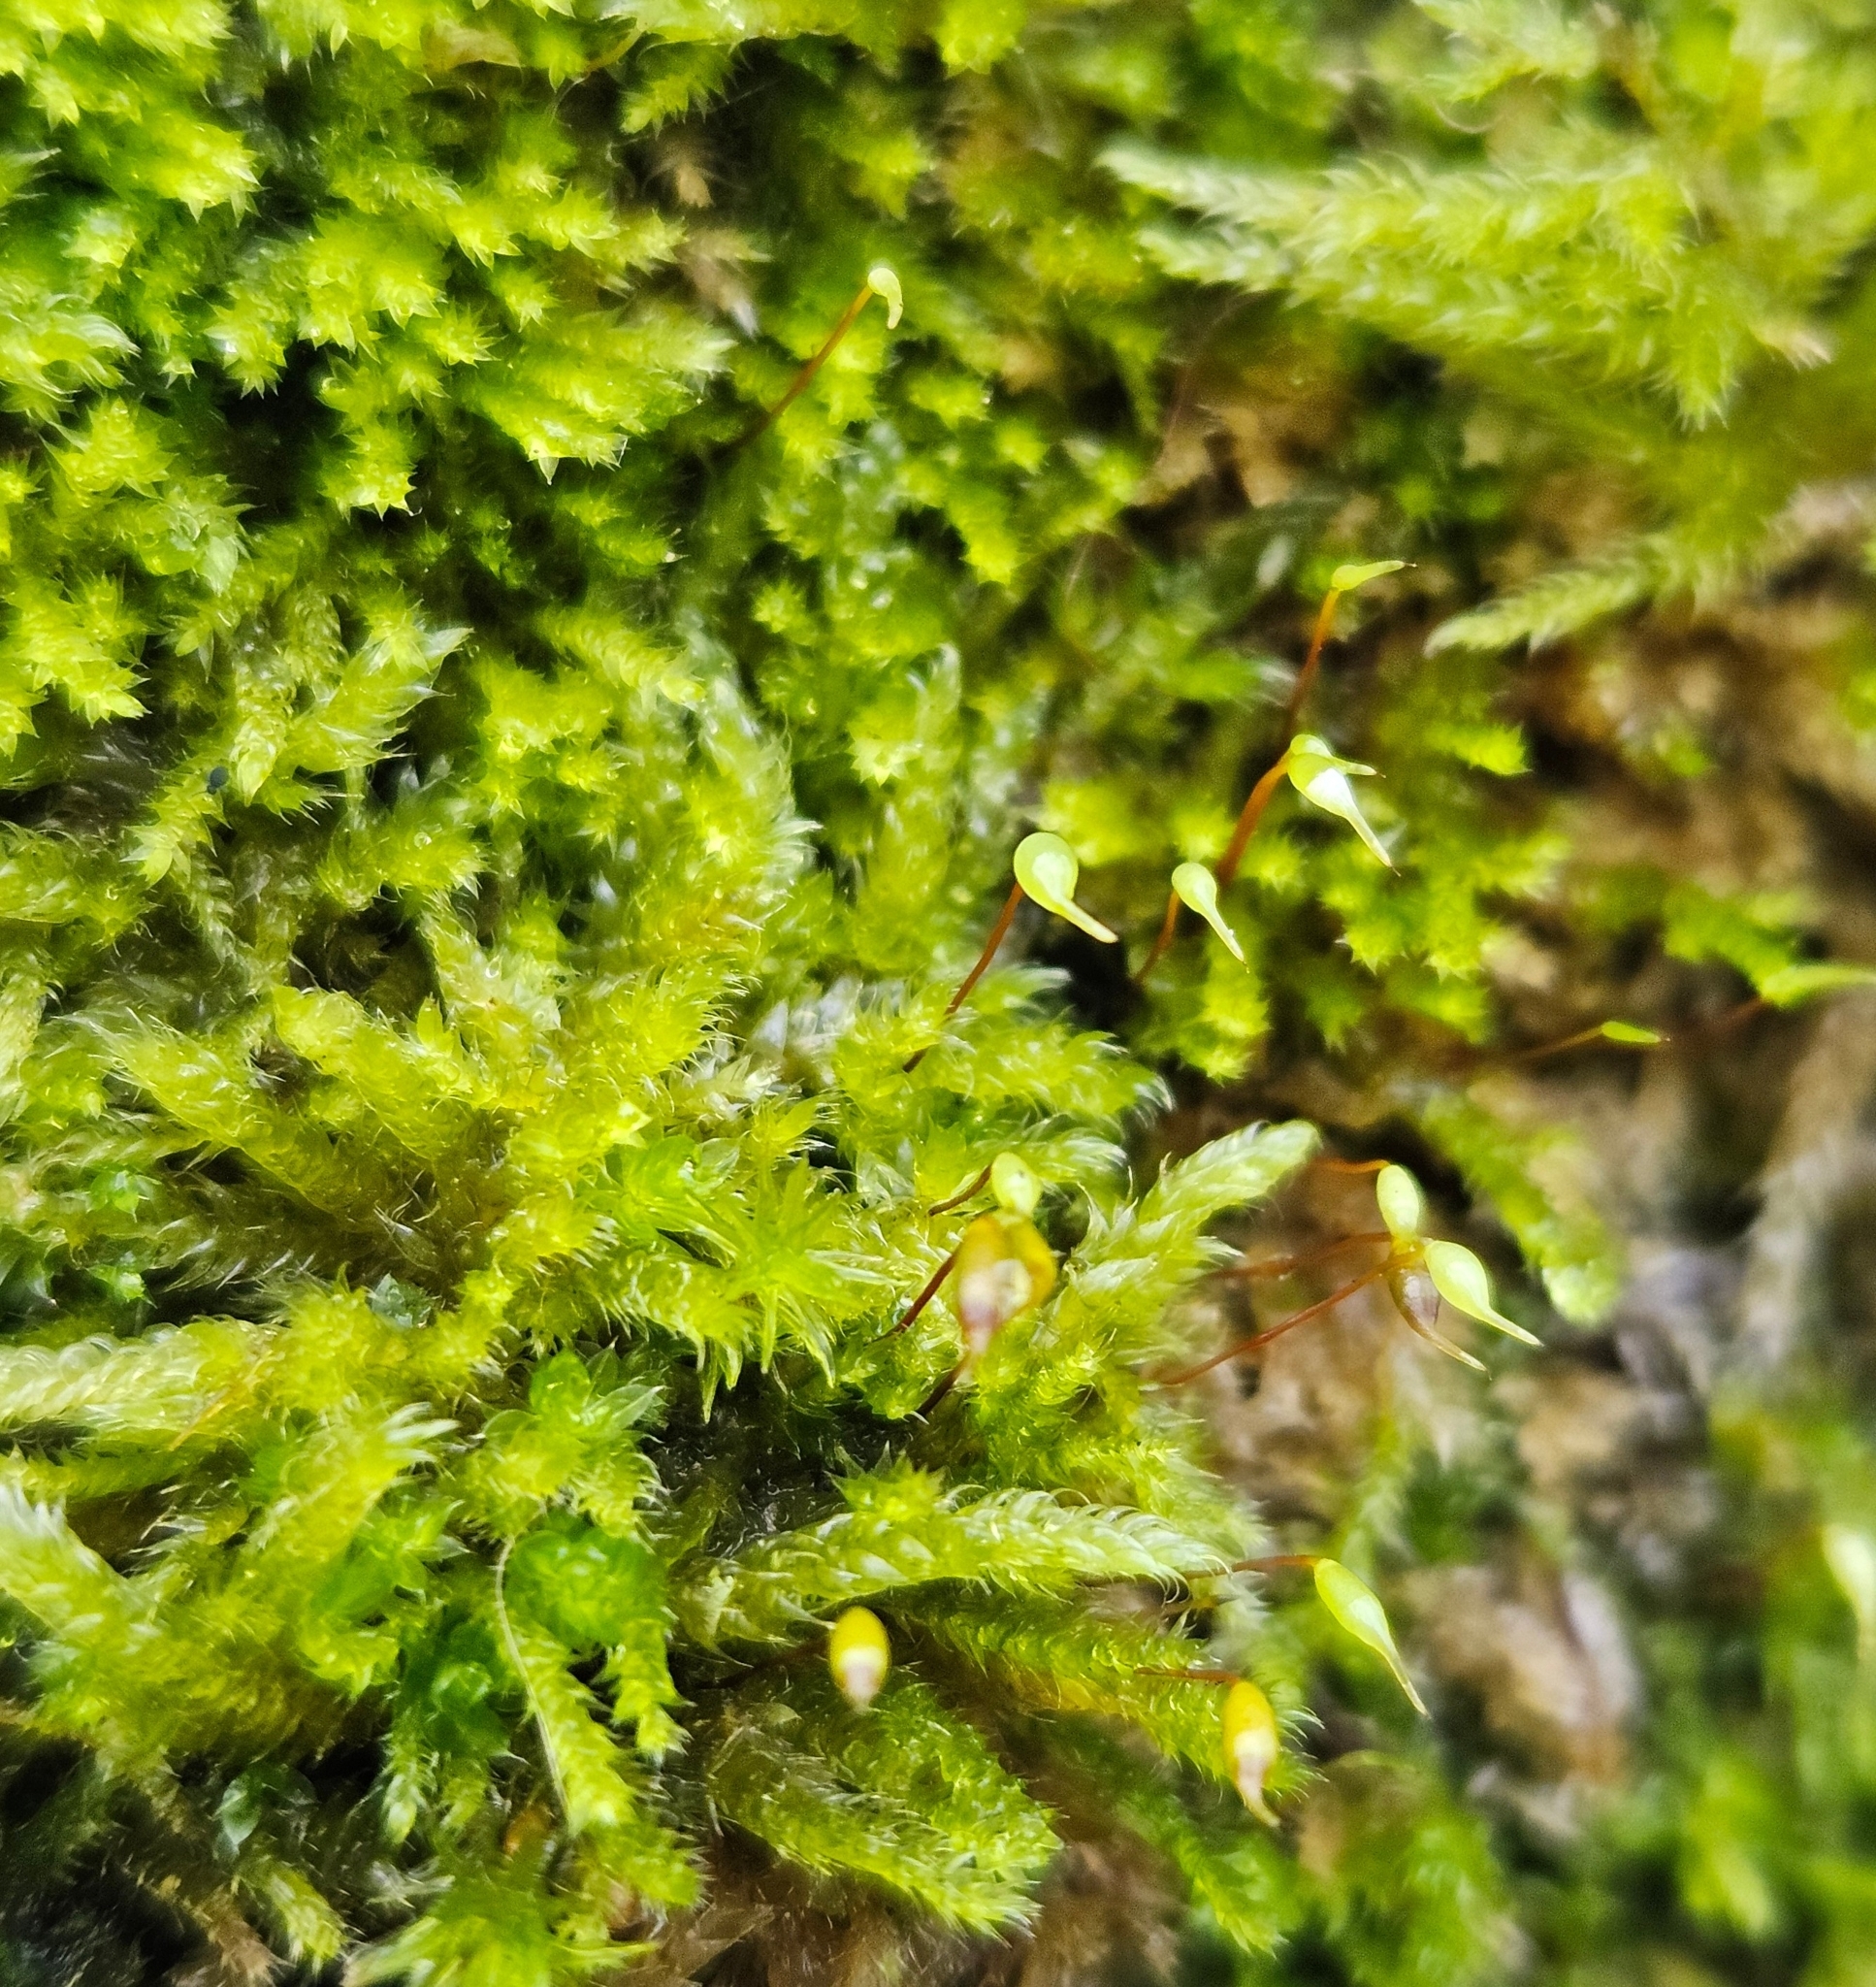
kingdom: Plantae
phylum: Bryophyta
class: Bryopsida
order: Hypnales
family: Brachytheciaceae
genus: Rhynchostegium
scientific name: Rhynchostegium confertum
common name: Clustered feather-moss
